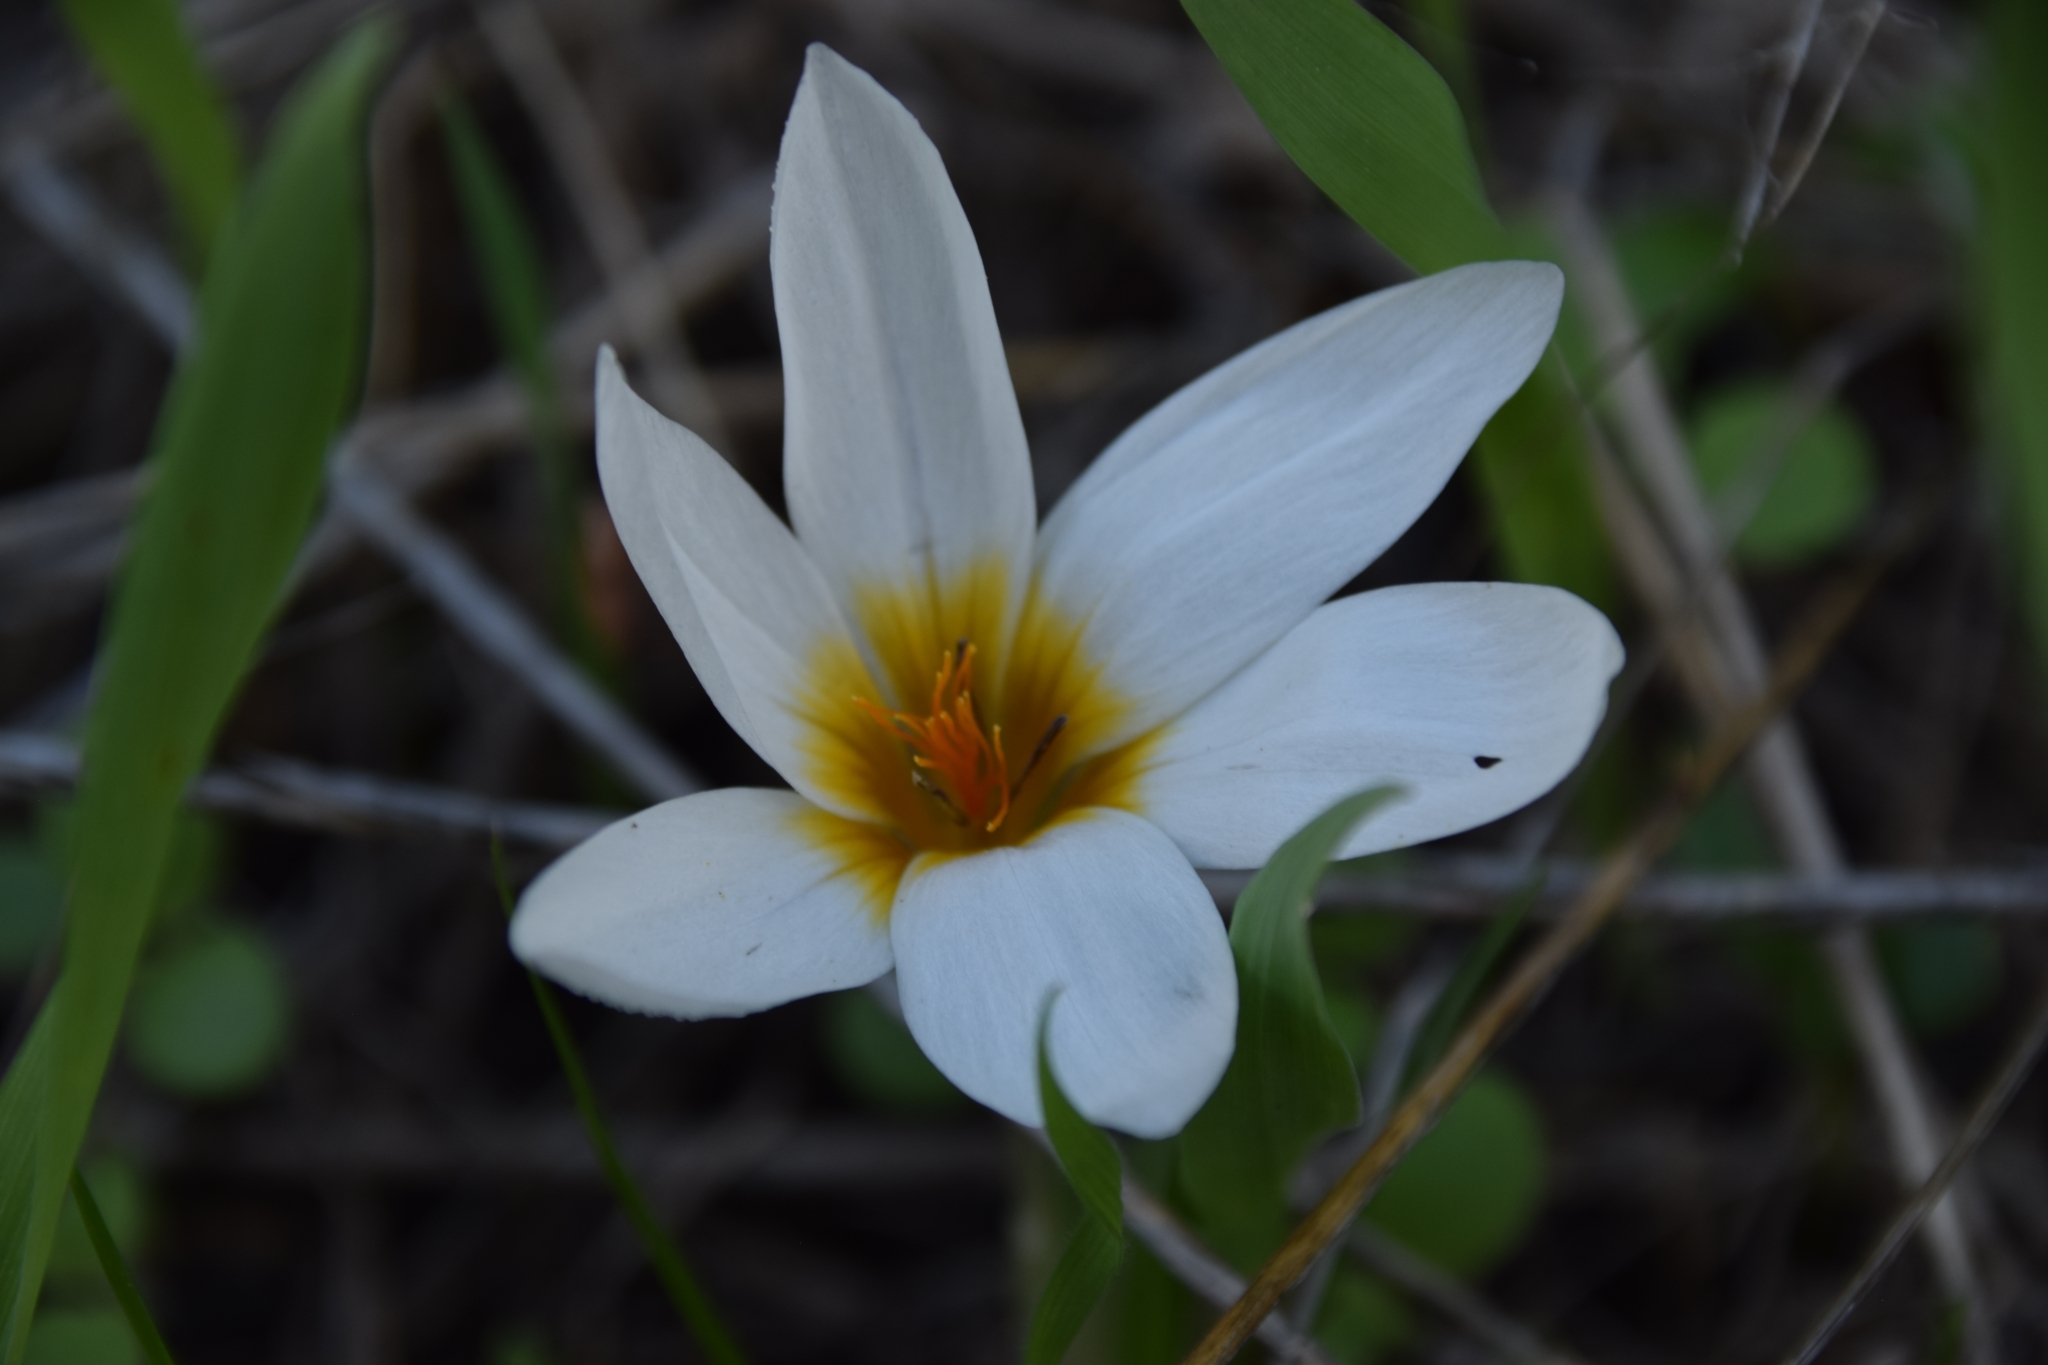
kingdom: Plantae
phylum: Tracheophyta
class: Liliopsida
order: Asparagales
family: Iridaceae
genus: Crocus
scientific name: Crocus hyemalis
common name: Winter crocus
